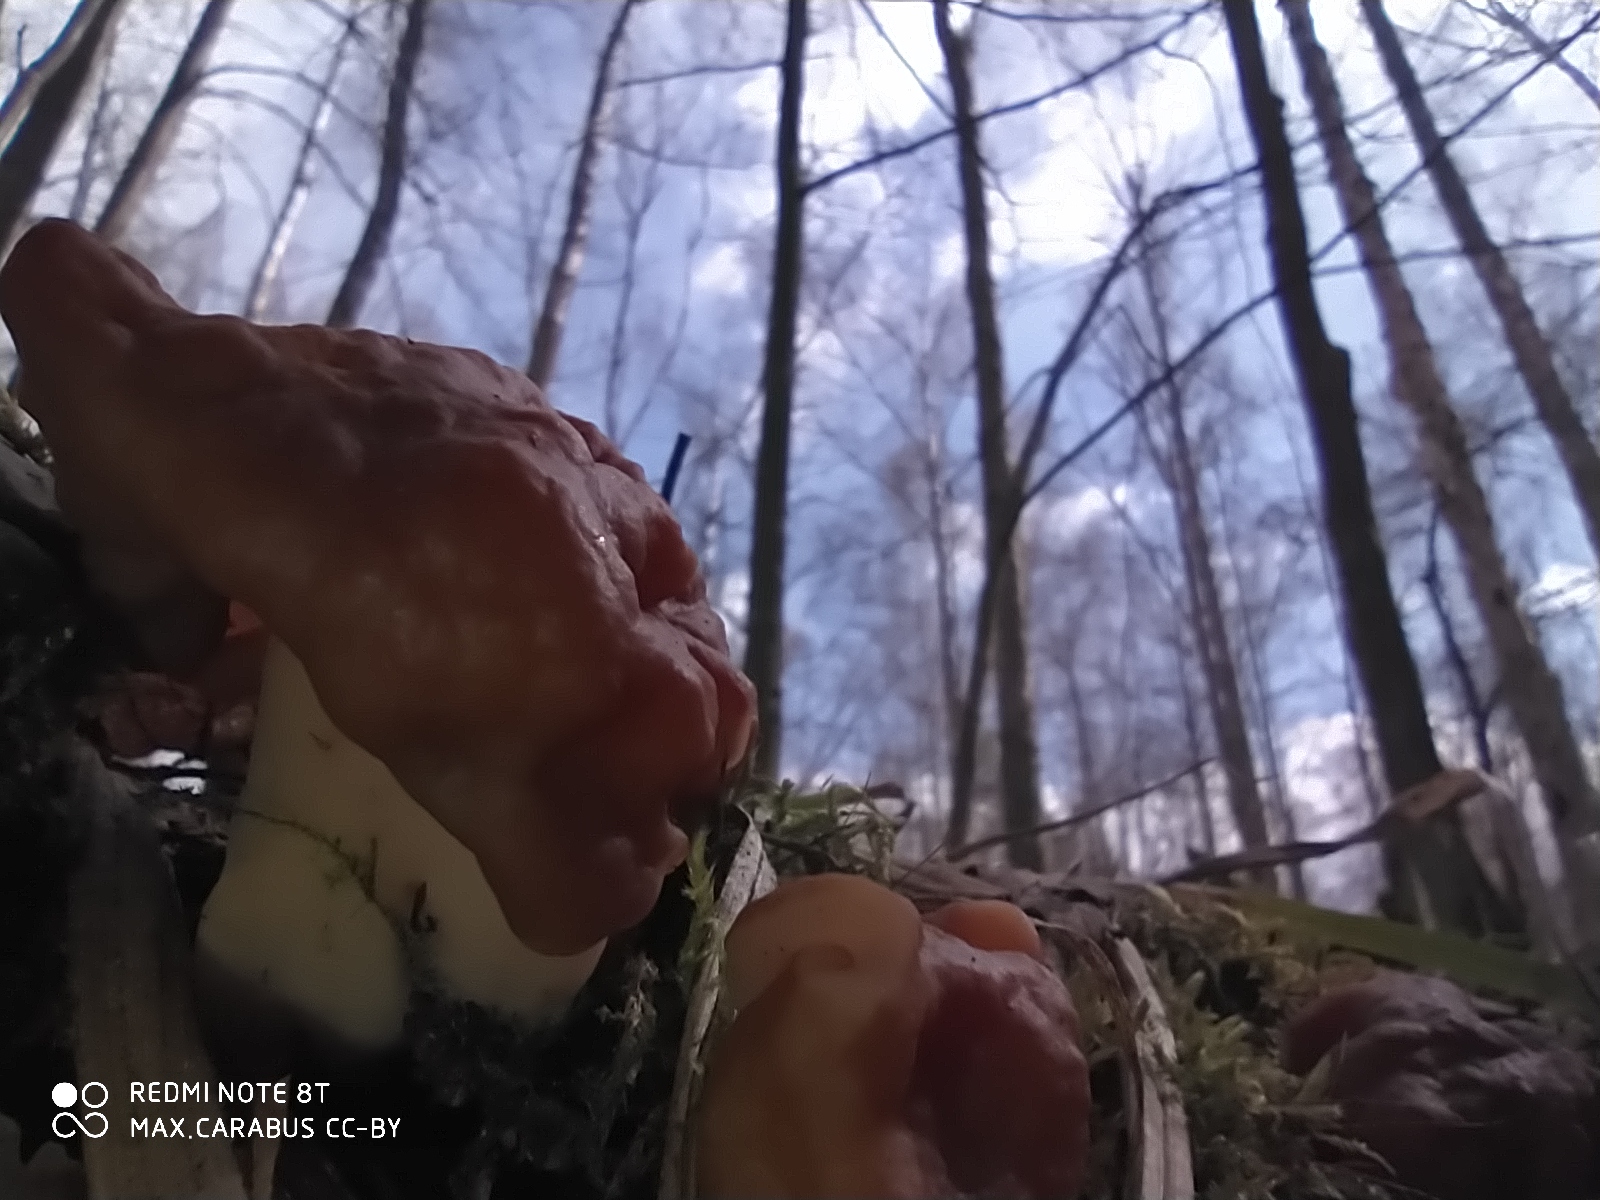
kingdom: Fungi
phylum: Ascomycota
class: Pezizomycetes
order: Pezizales
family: Discinaceae
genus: Gyromitra
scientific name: Gyromitra gigas
